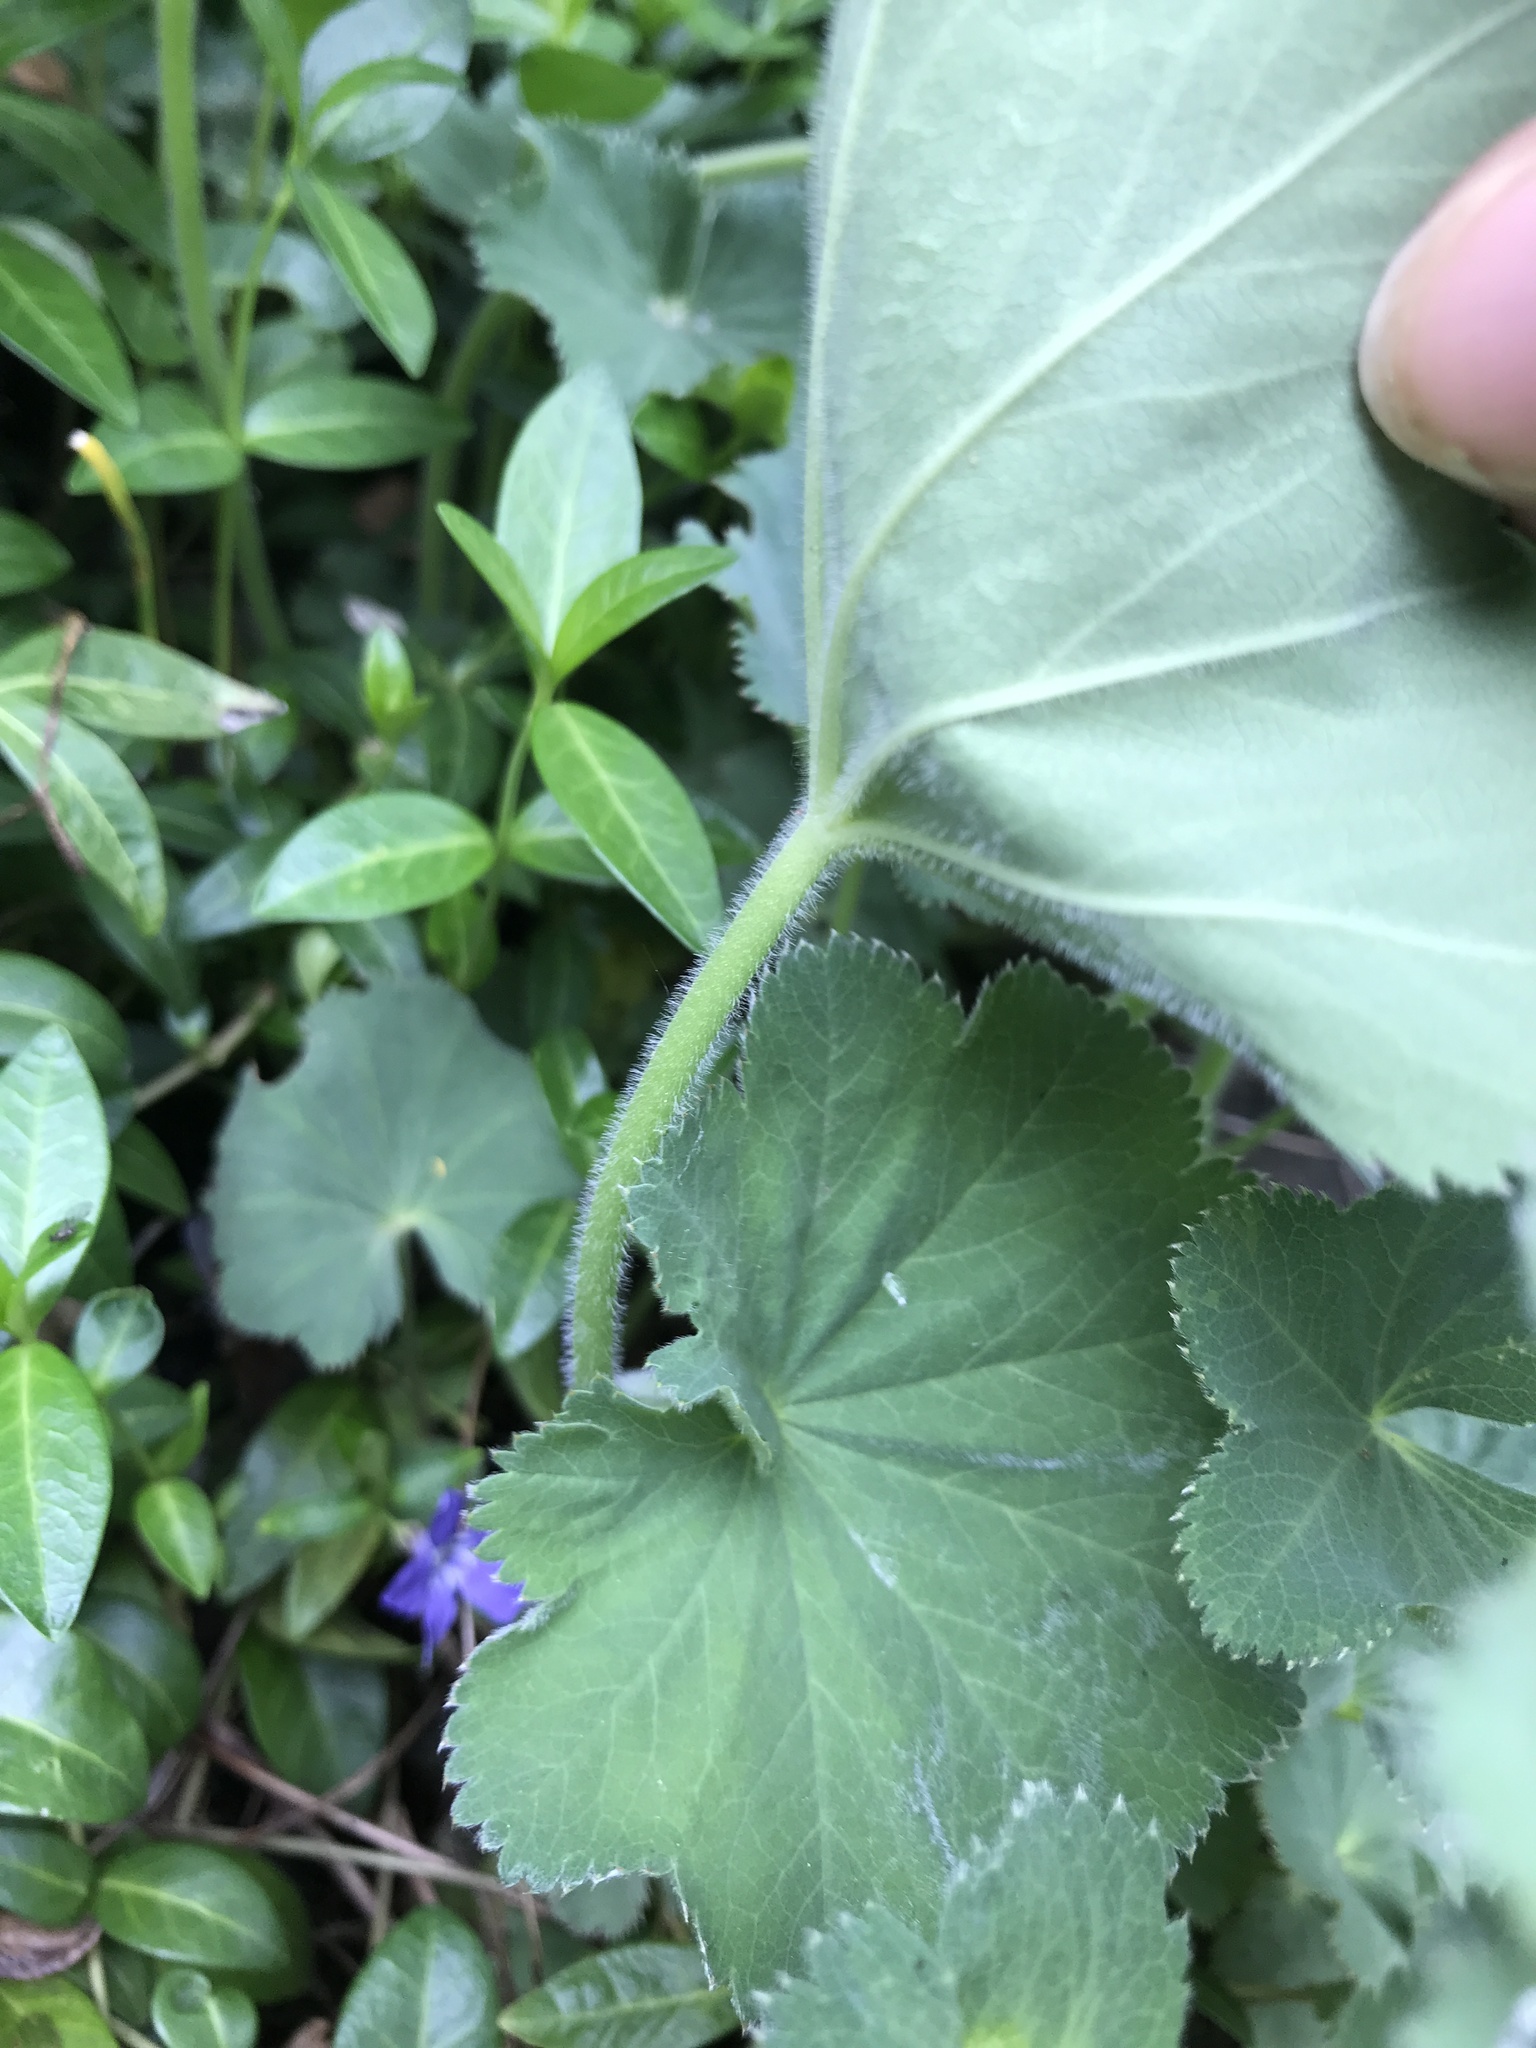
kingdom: Plantae
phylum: Tracheophyta
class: Magnoliopsida
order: Rosales
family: Rosaceae
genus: Alchemilla
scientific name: Alchemilla mollis
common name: Lady's-mantle
